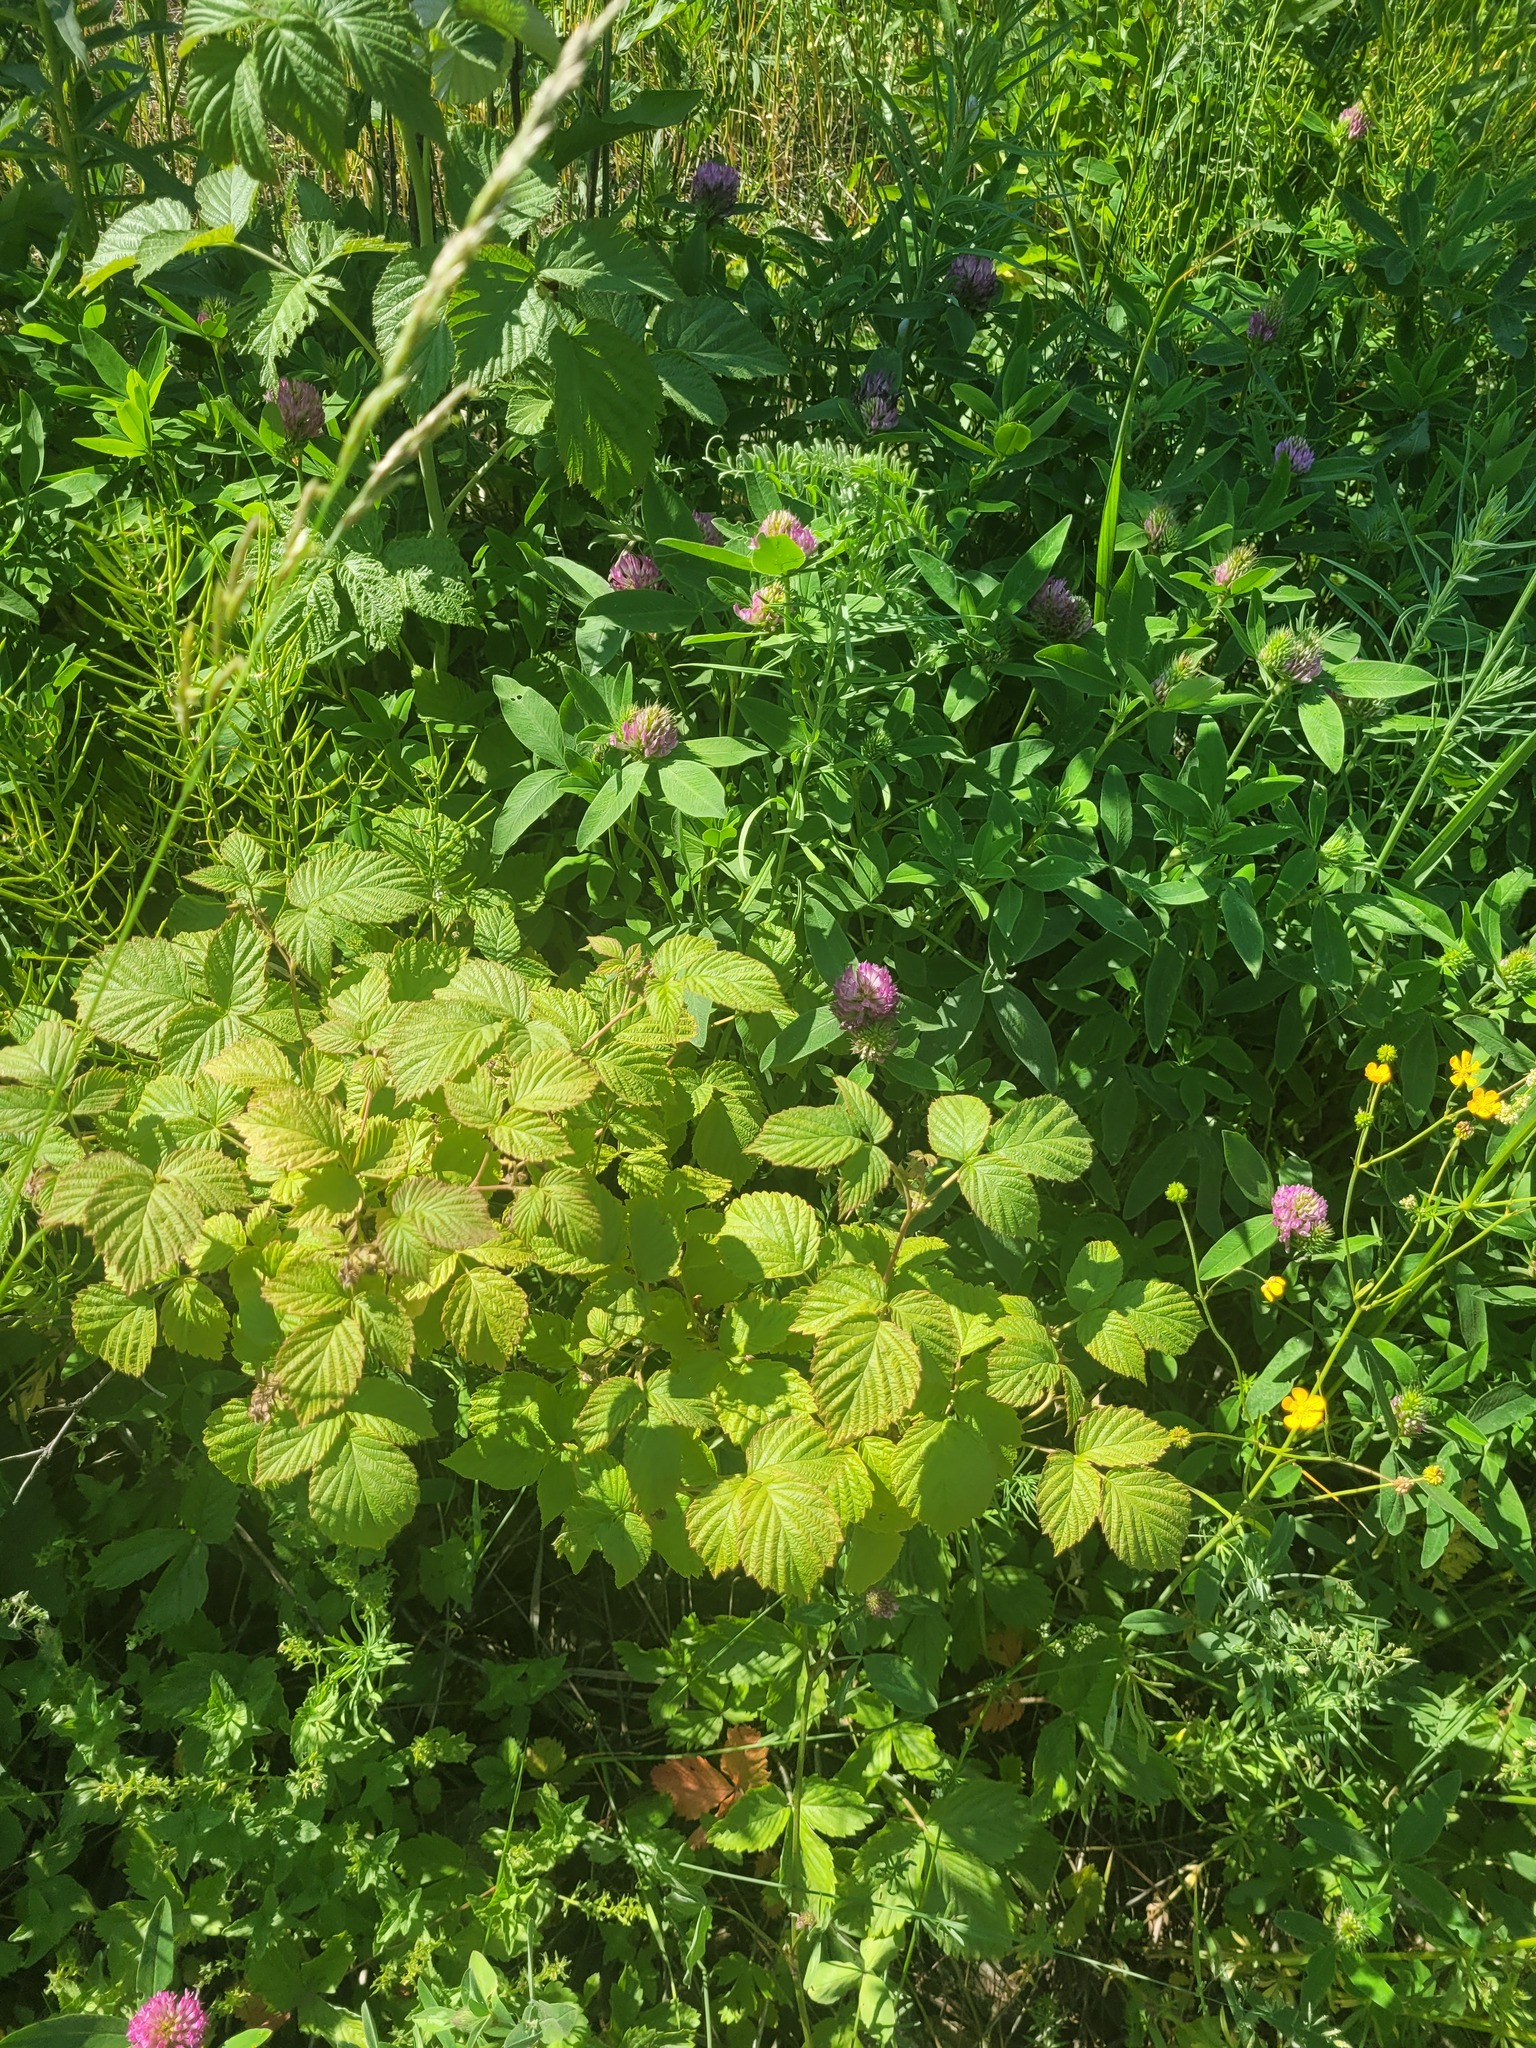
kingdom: Plantae
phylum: Tracheophyta
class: Magnoliopsida
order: Rosales
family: Rosaceae
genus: Rubus
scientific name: Rubus idaeus
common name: Raspberry
